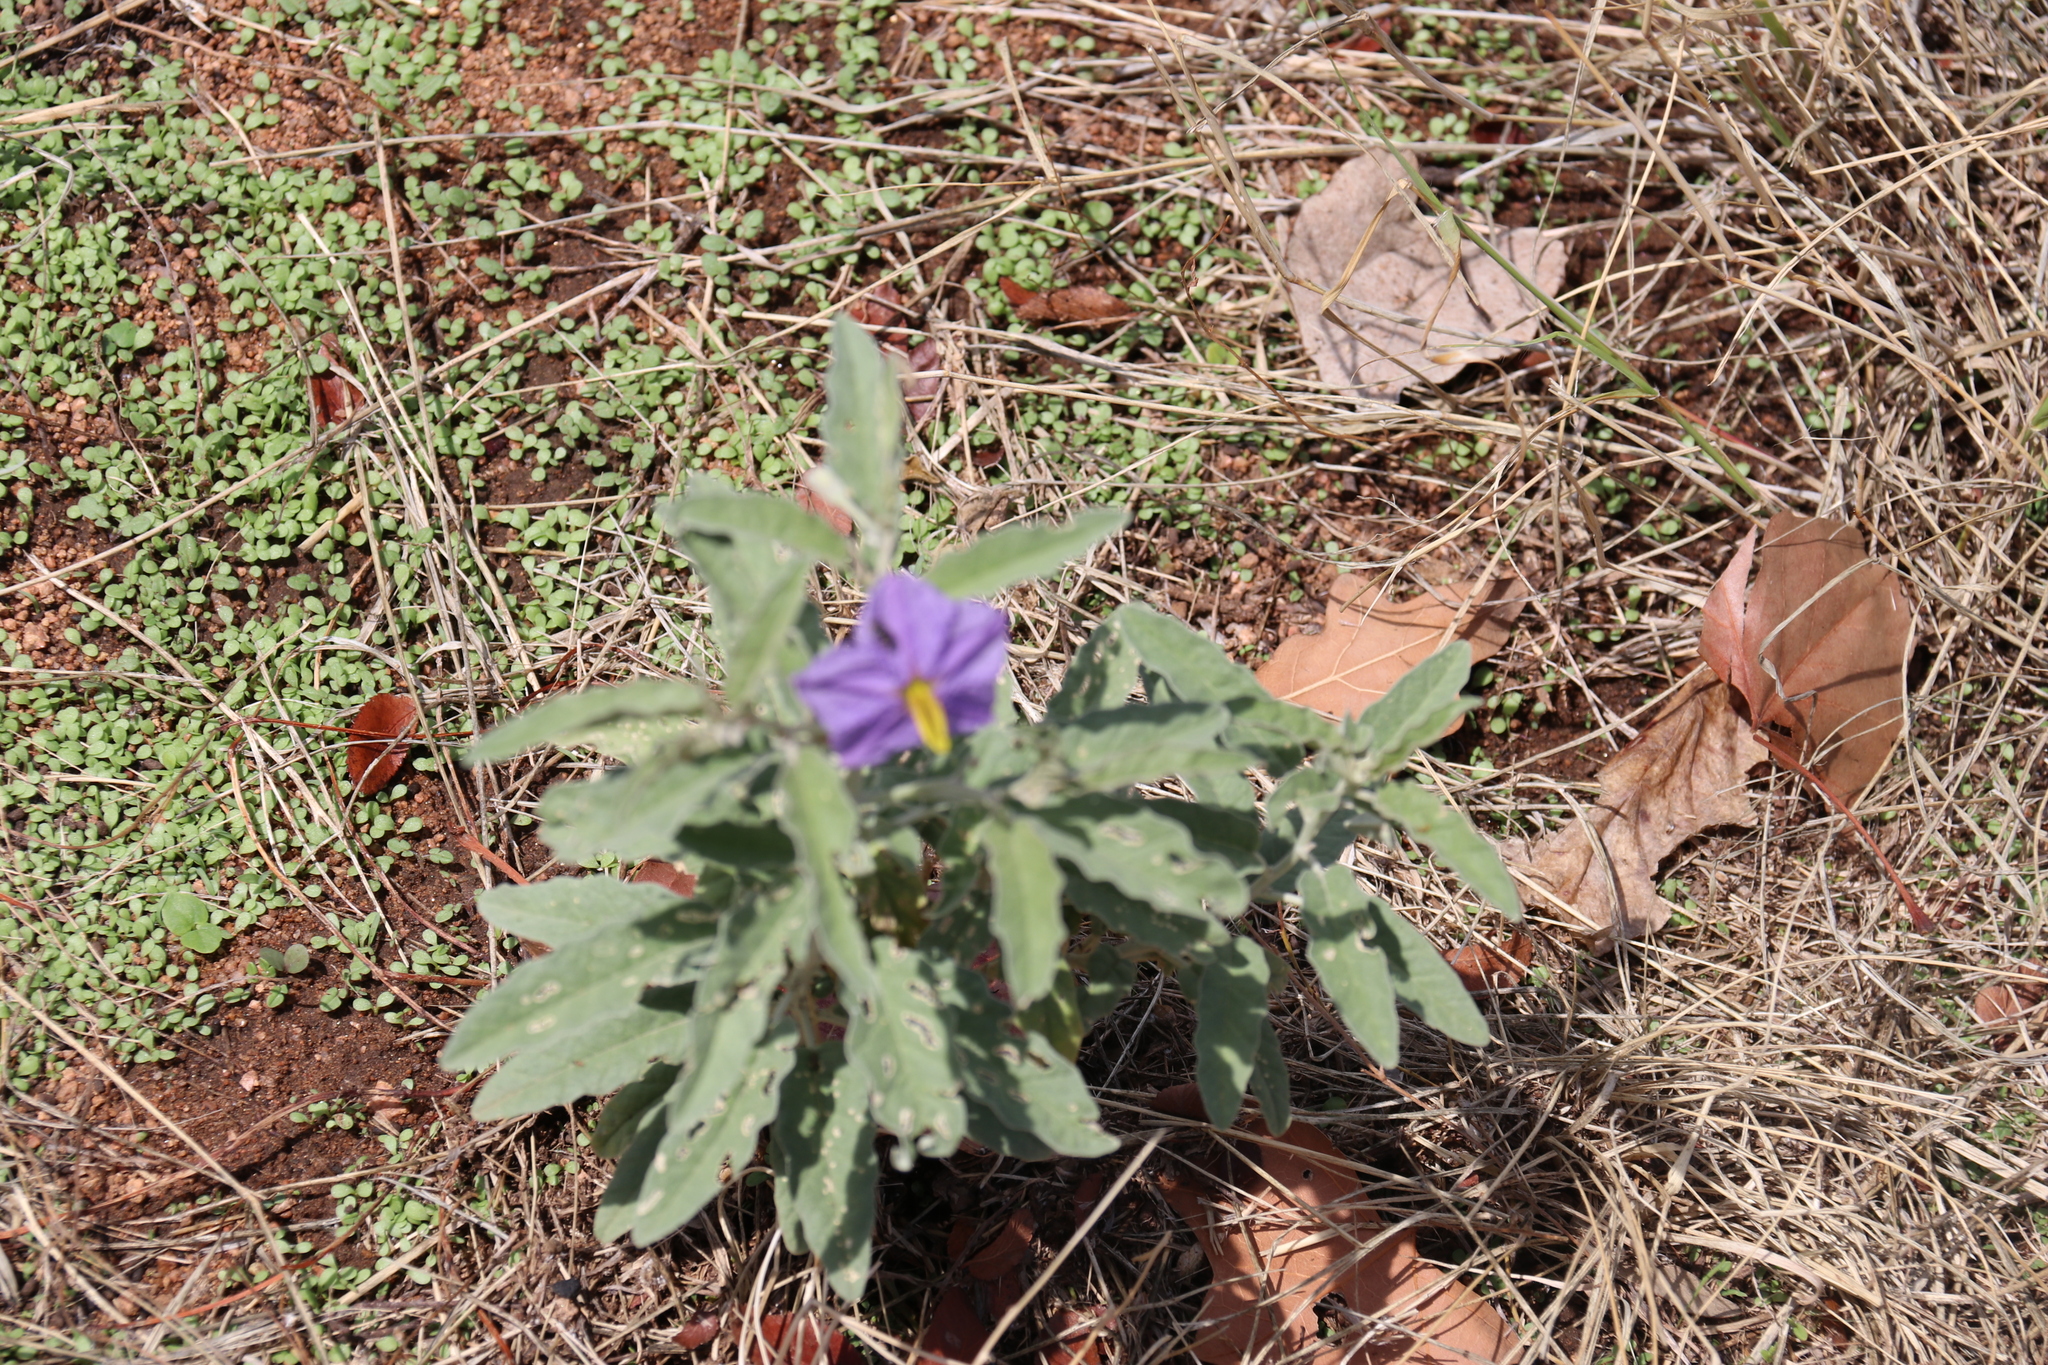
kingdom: Plantae
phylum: Tracheophyta
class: Magnoliopsida
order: Solanales
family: Solanaceae
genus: Solanum
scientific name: Solanum elaeagnifolium
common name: Silverleaf nightshade
